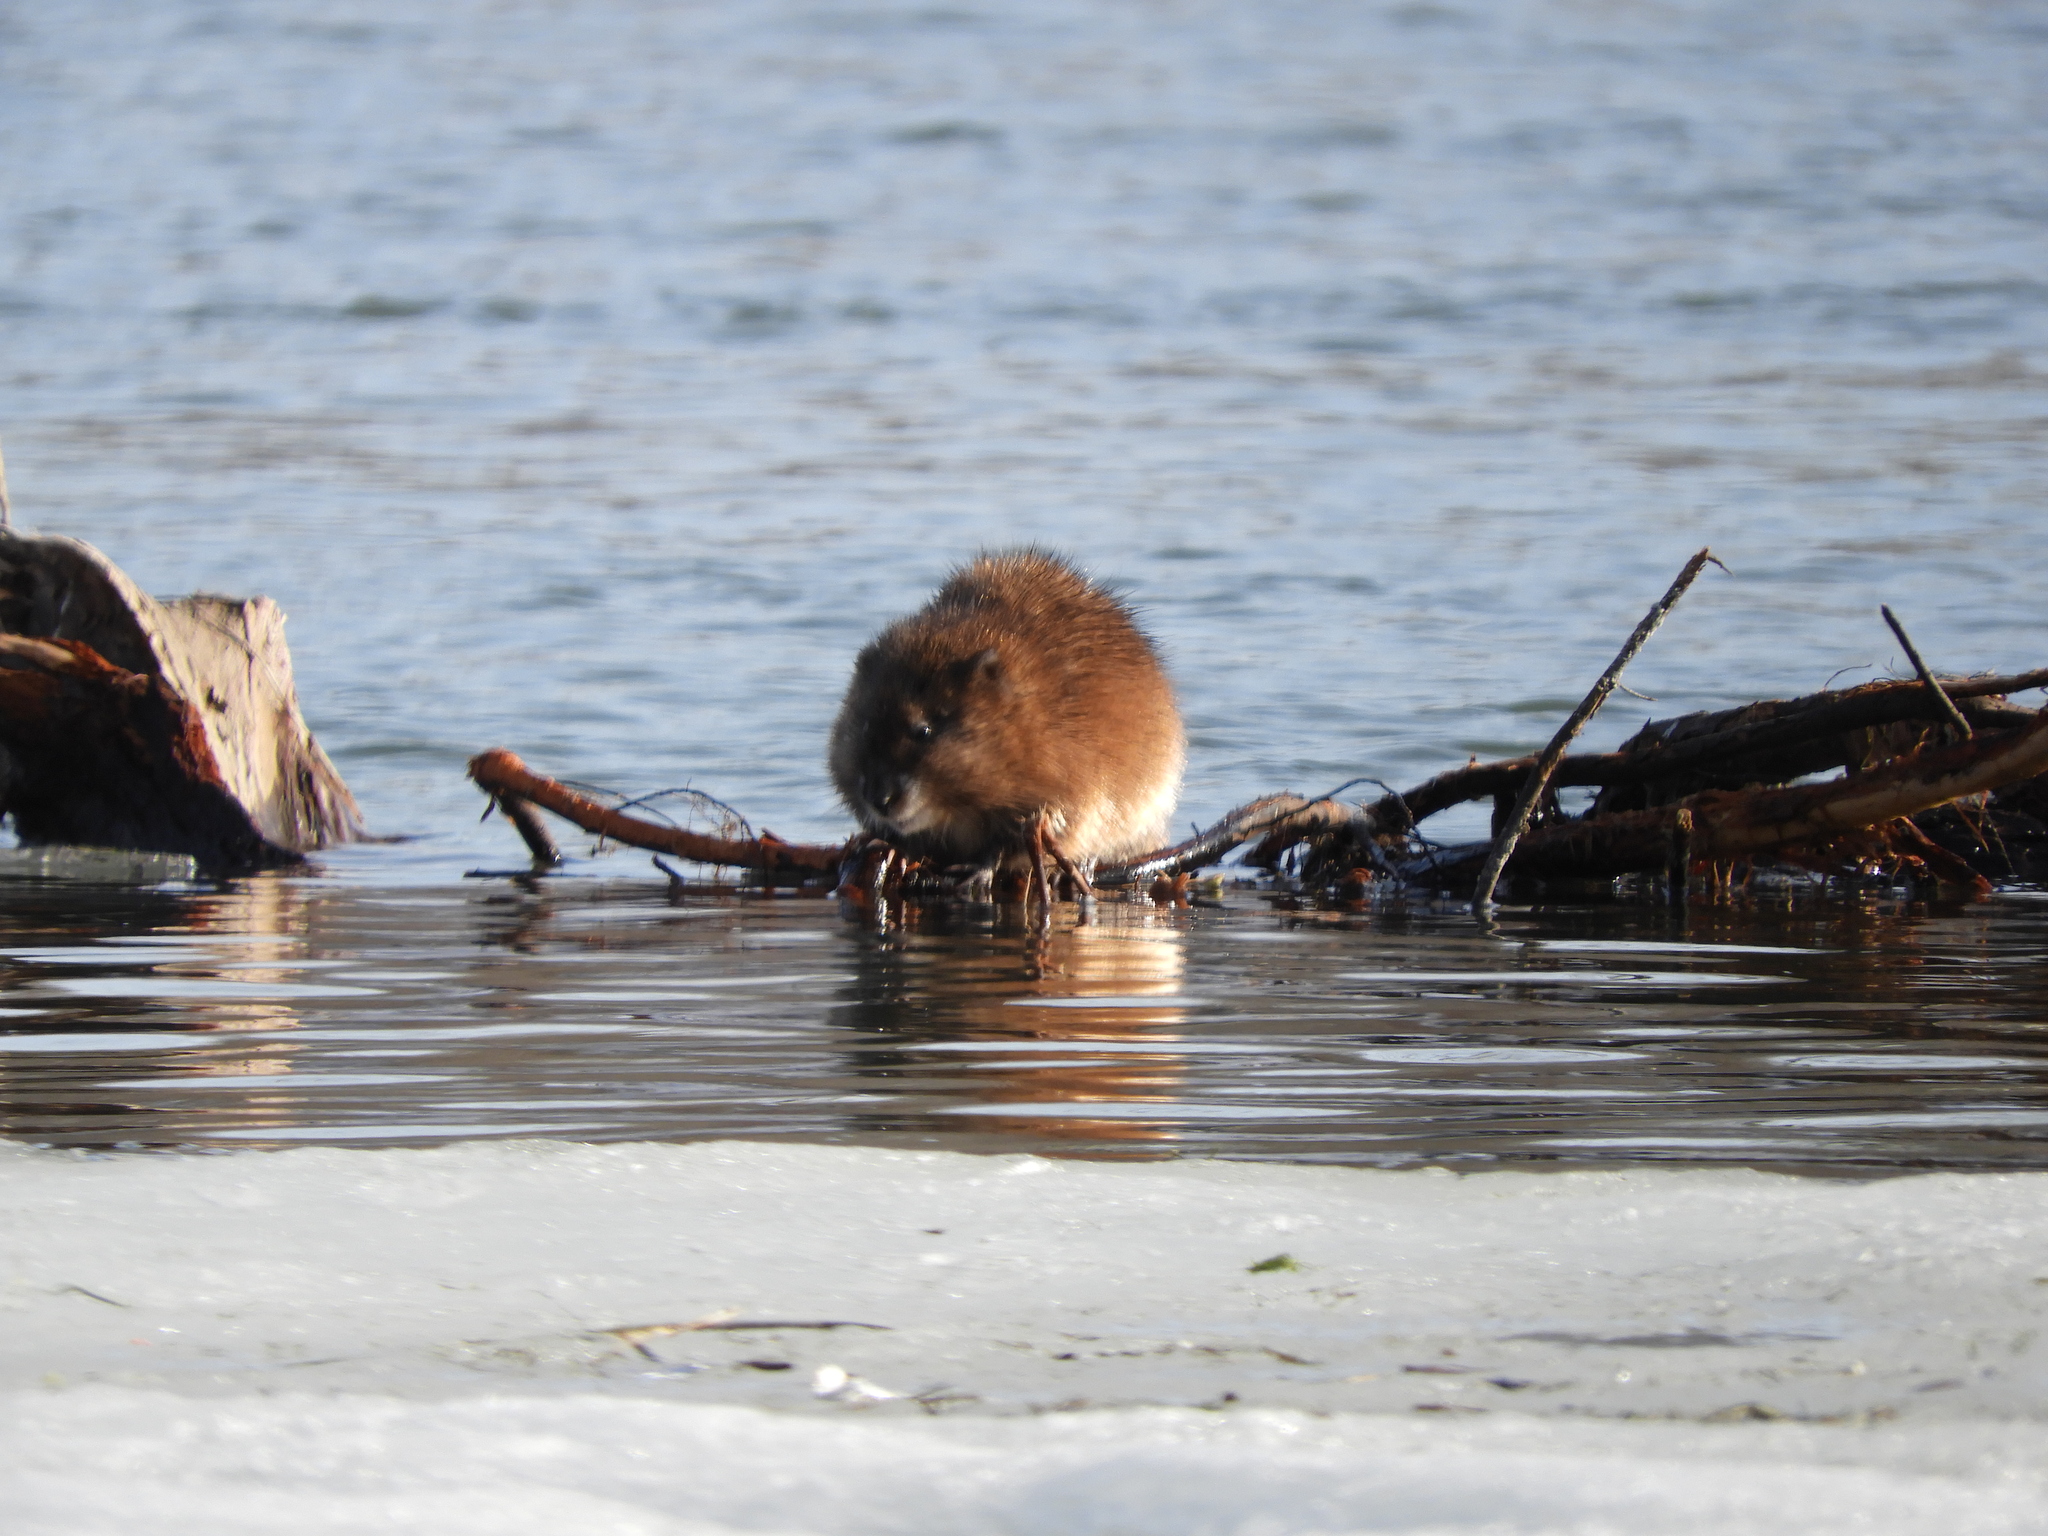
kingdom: Animalia
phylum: Chordata
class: Mammalia
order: Rodentia
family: Cricetidae
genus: Ondatra
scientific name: Ondatra zibethicus
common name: Muskrat
